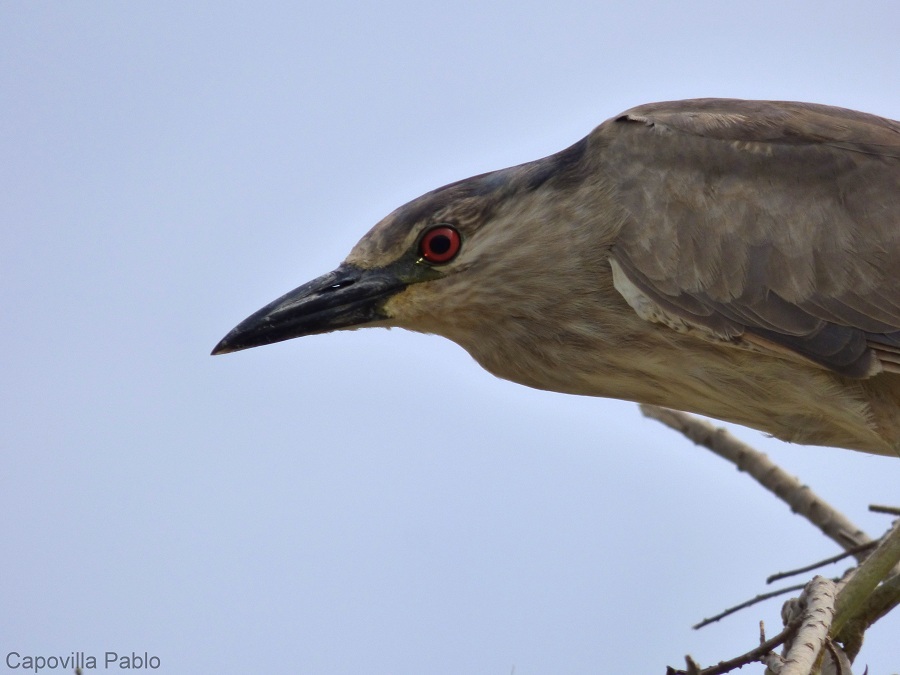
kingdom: Animalia
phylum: Chordata
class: Aves
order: Pelecaniformes
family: Ardeidae
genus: Nycticorax
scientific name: Nycticorax nycticorax
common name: Black-crowned night heron
